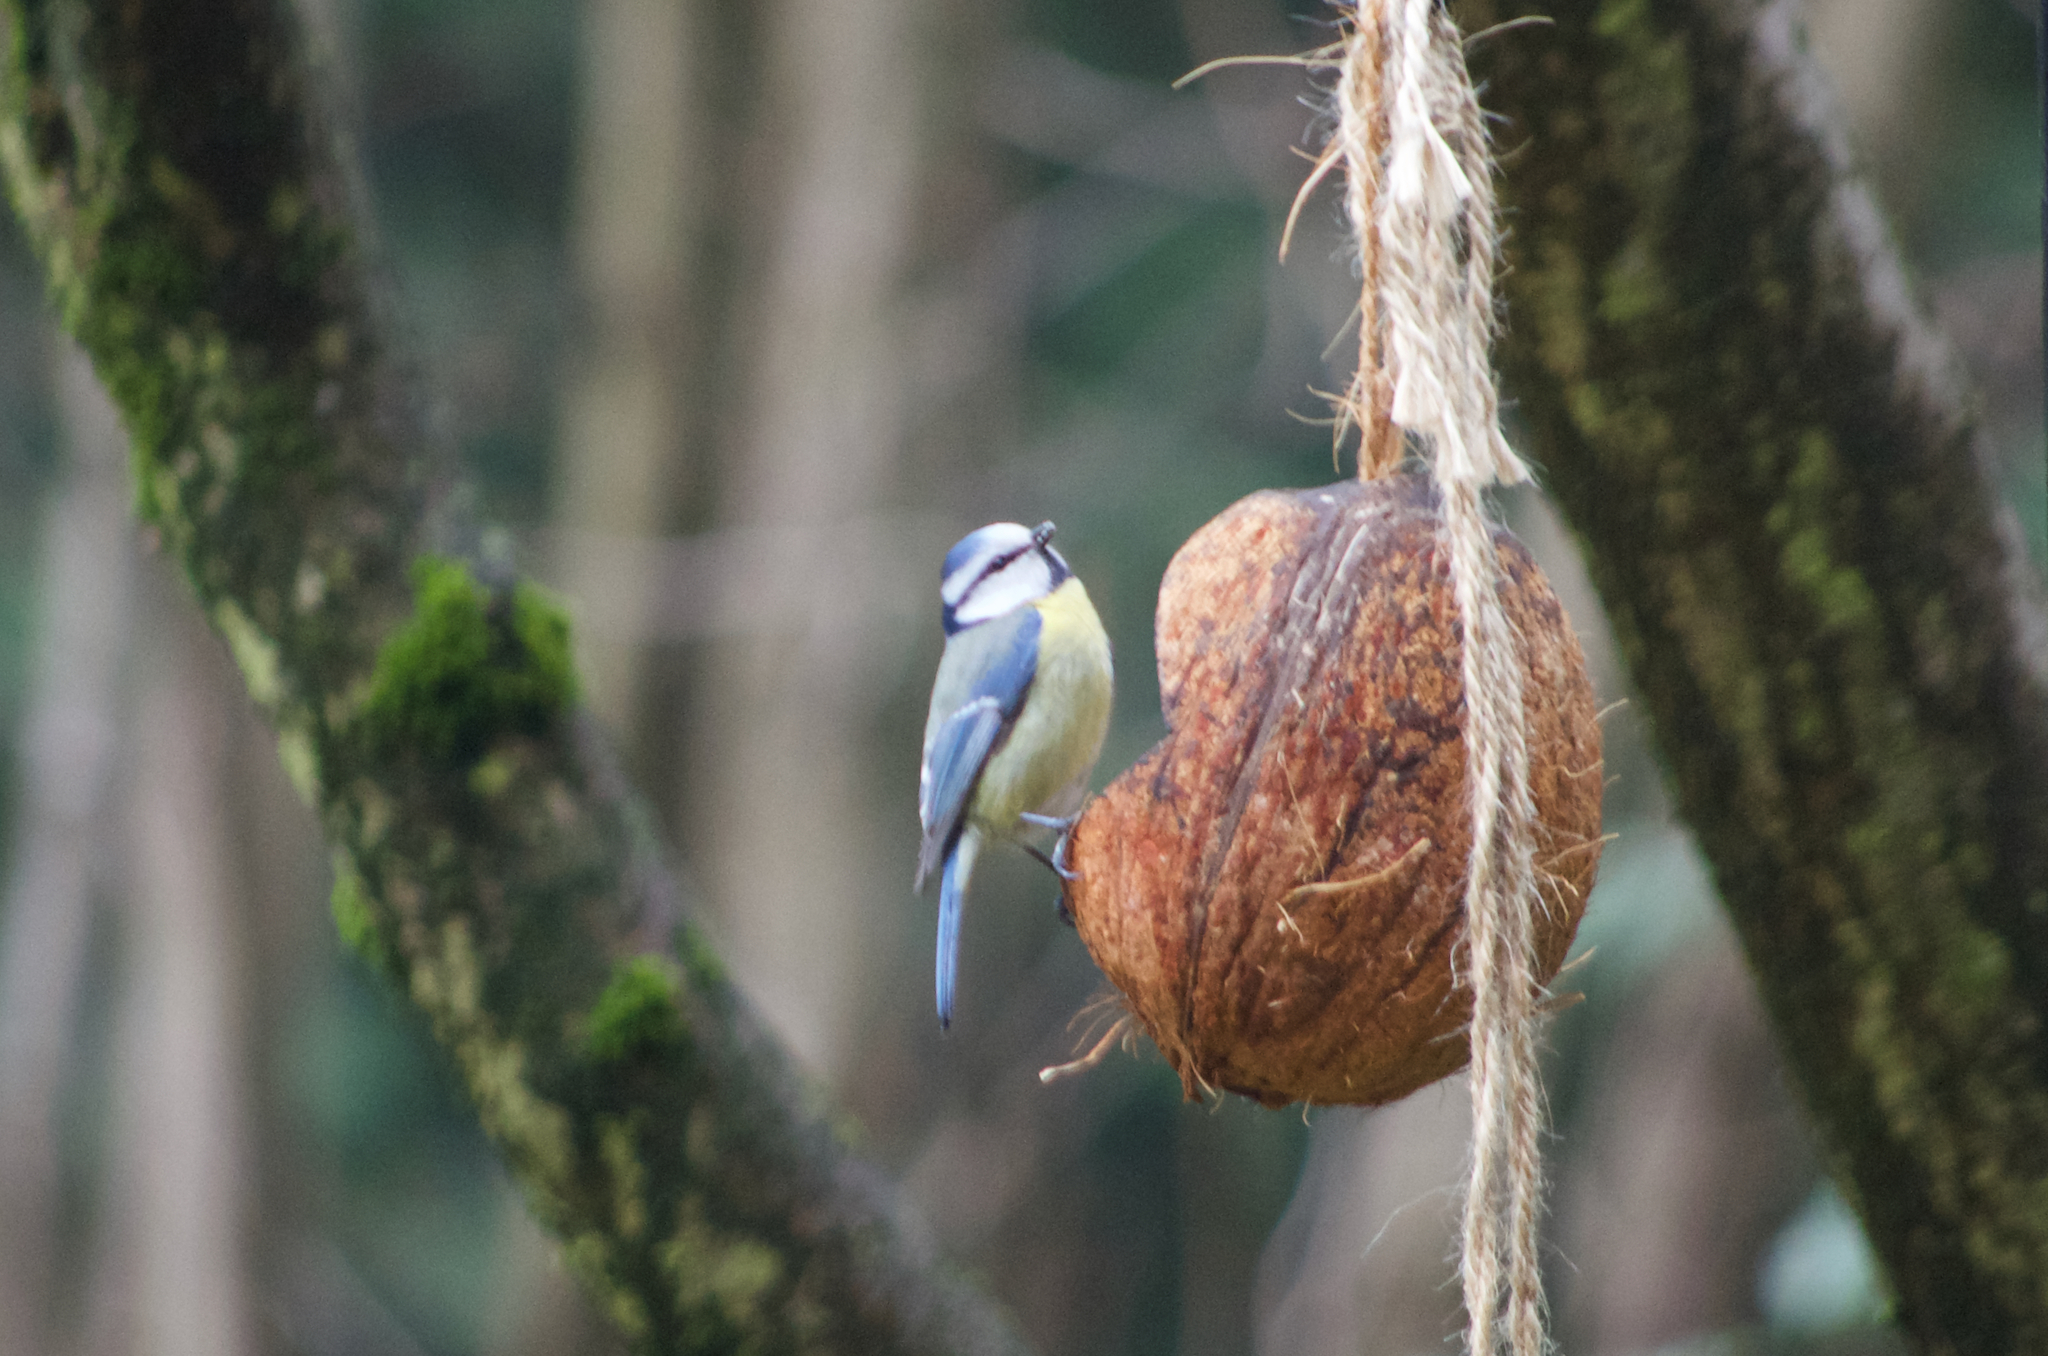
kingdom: Animalia
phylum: Chordata
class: Aves
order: Passeriformes
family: Paridae
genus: Cyanistes
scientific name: Cyanistes caeruleus
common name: Eurasian blue tit
